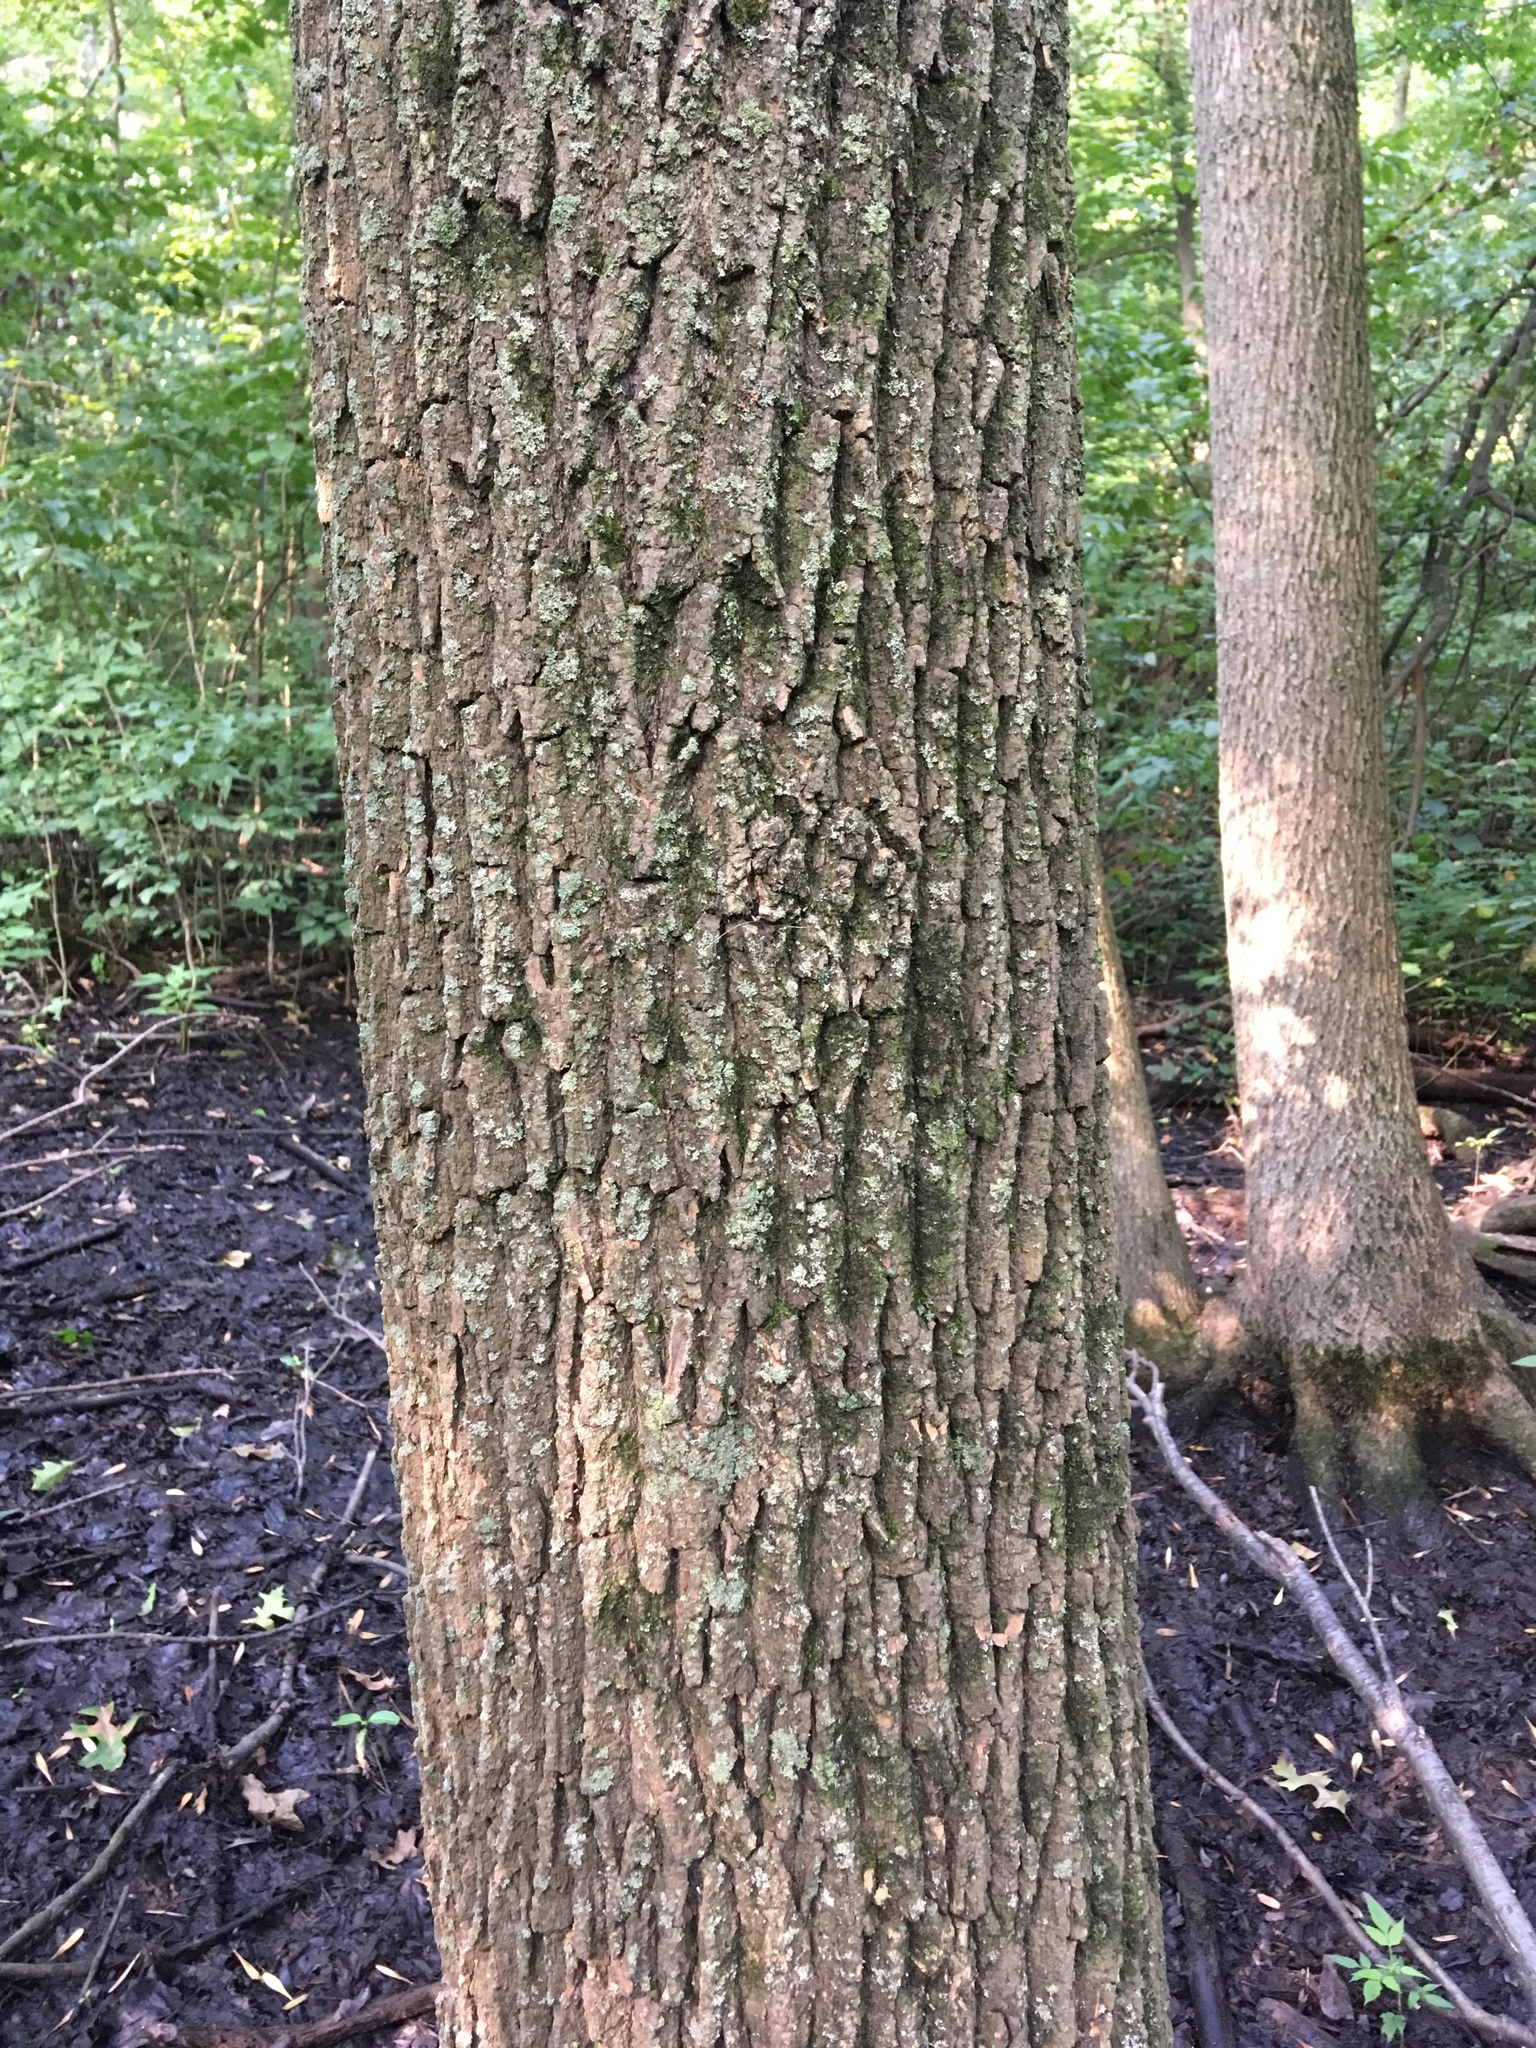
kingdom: Plantae
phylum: Tracheophyta
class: Magnoliopsida
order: Lamiales
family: Oleaceae
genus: Fraxinus
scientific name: Fraxinus profunda
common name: Pumpkin ash
